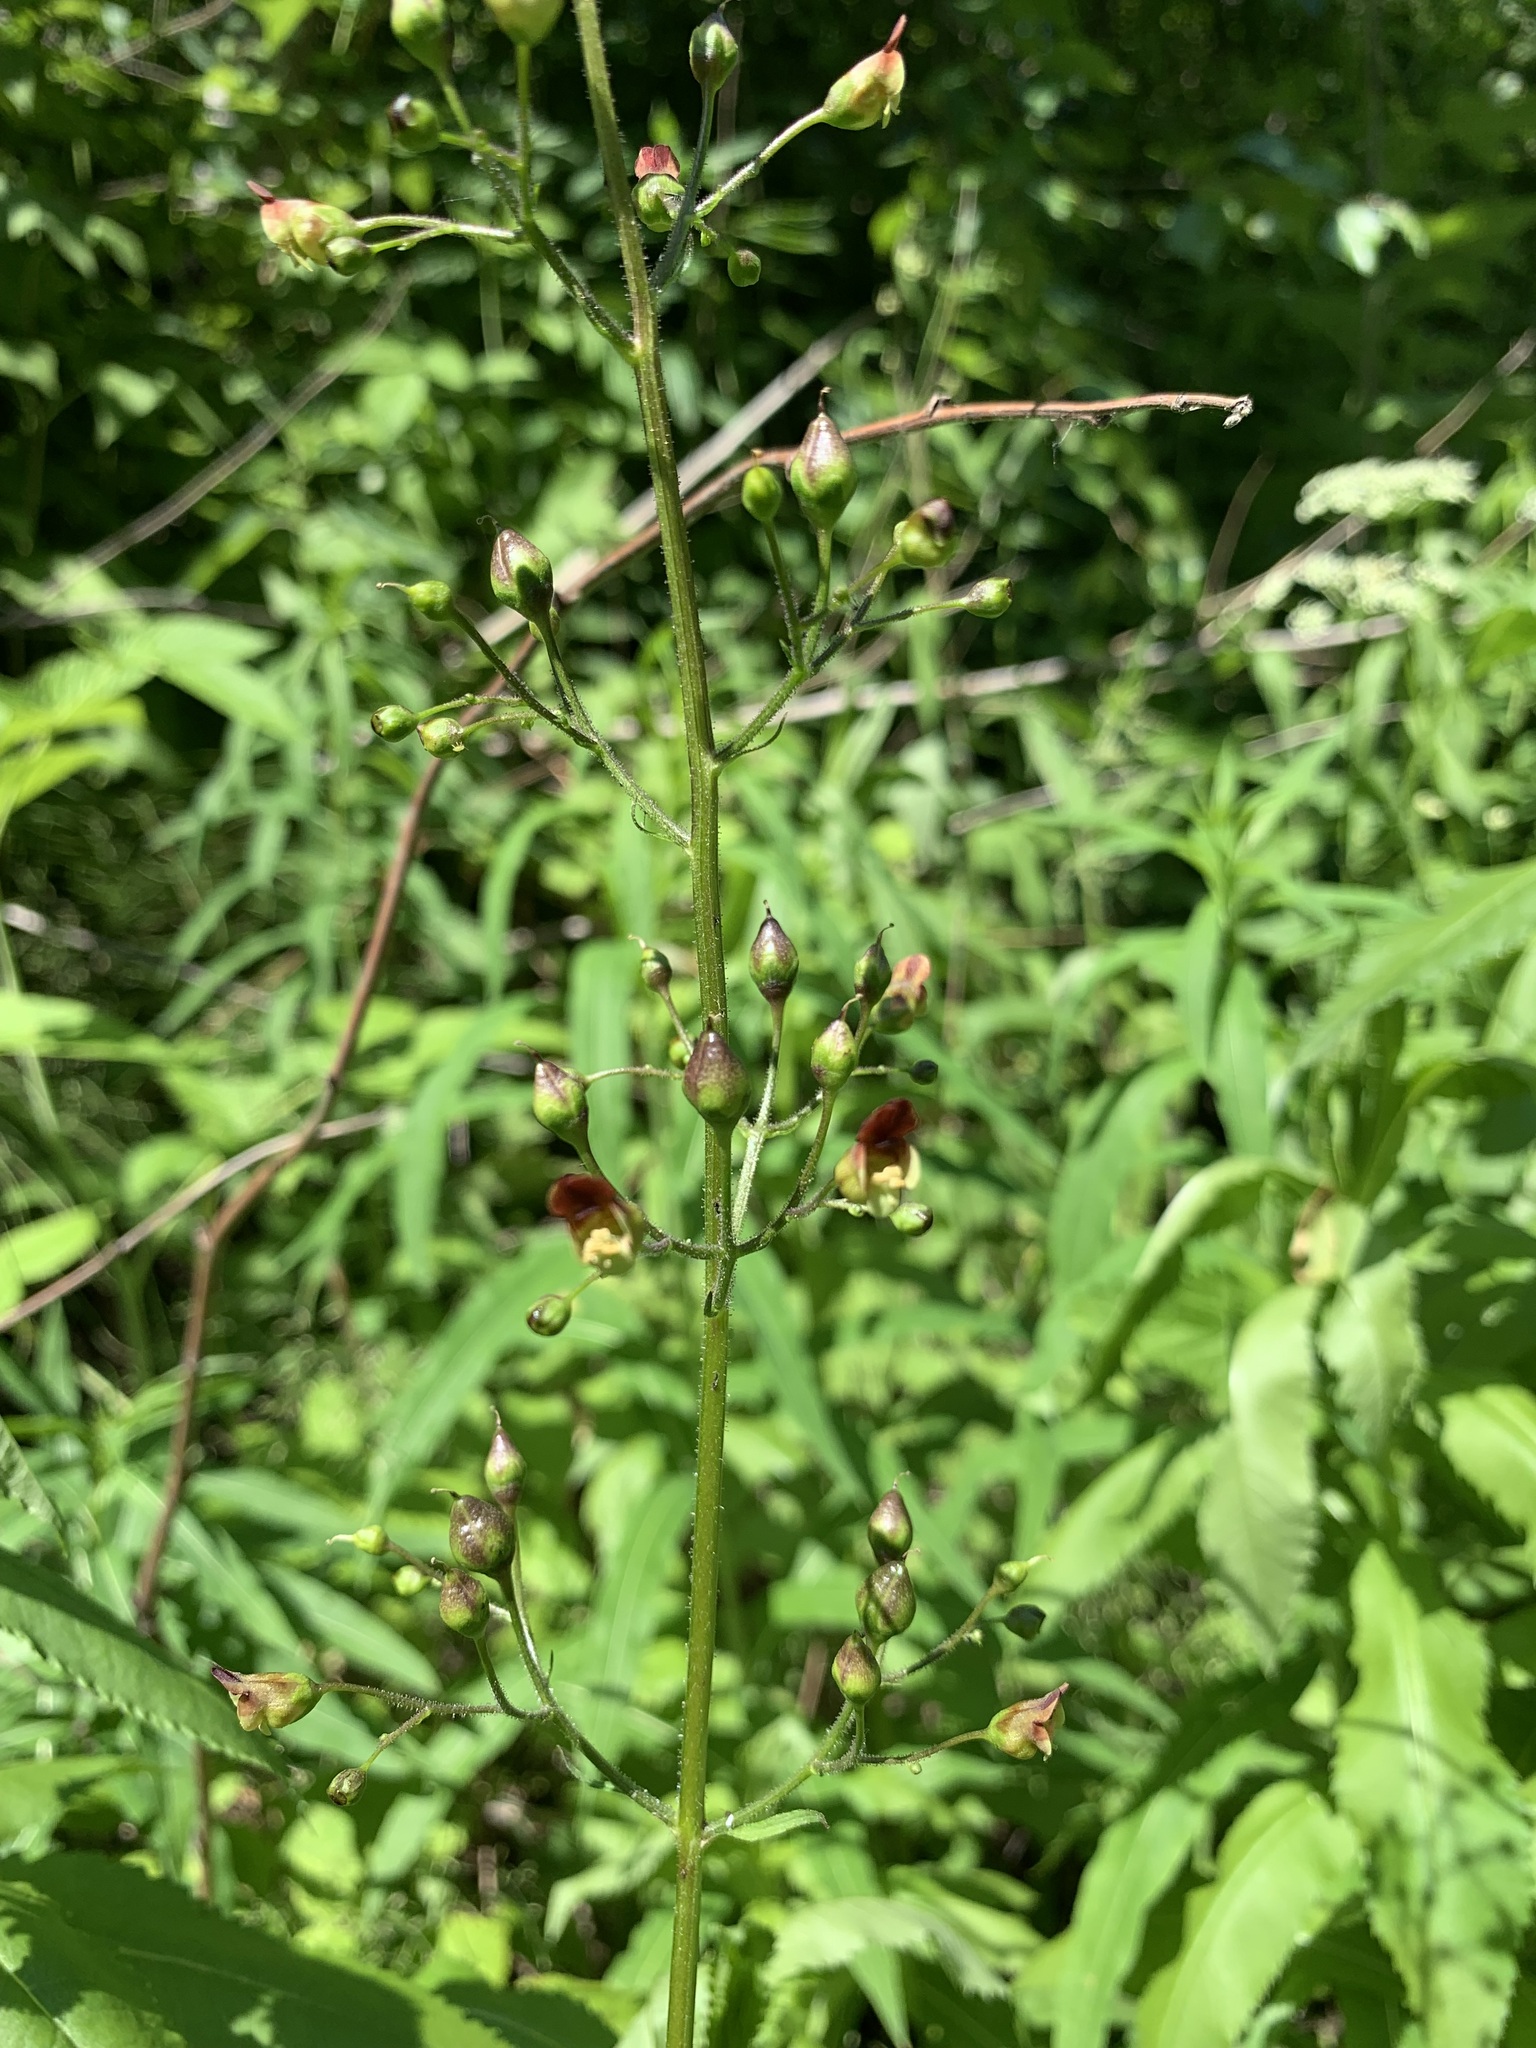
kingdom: Plantae
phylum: Tracheophyta
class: Magnoliopsida
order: Lamiales
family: Scrophulariaceae
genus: Scrophularia
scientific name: Scrophularia nodosa
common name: Common figwort
